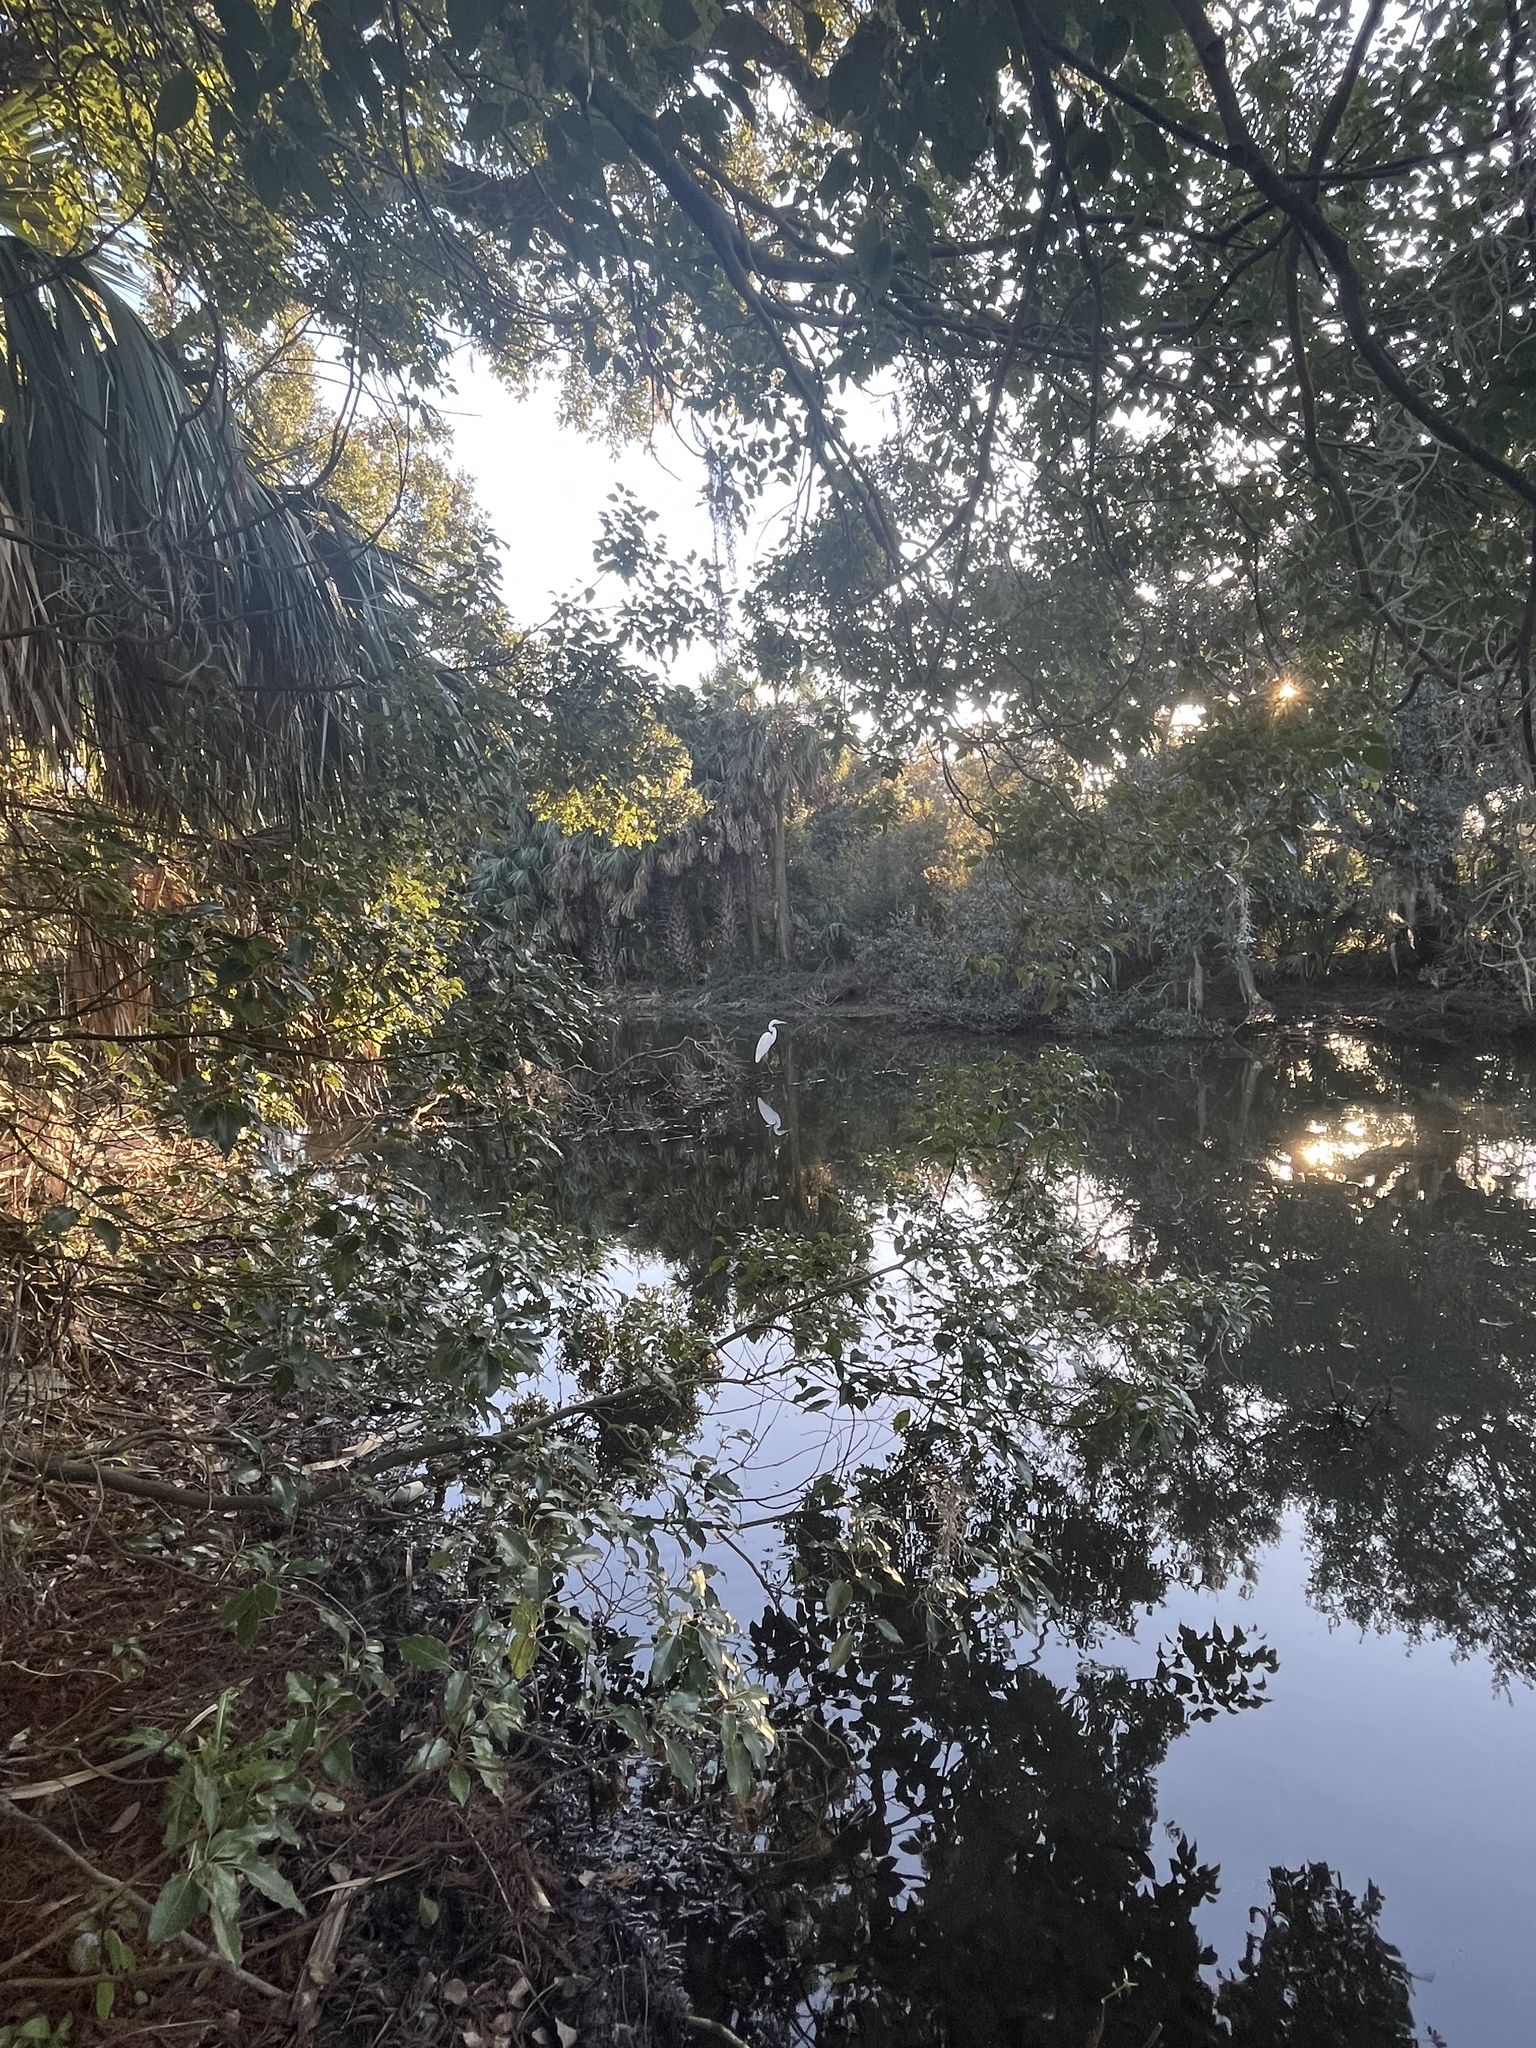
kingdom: Animalia
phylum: Chordata
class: Aves
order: Pelecaniformes
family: Ardeidae
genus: Ardea
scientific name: Ardea alba
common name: Great egret
